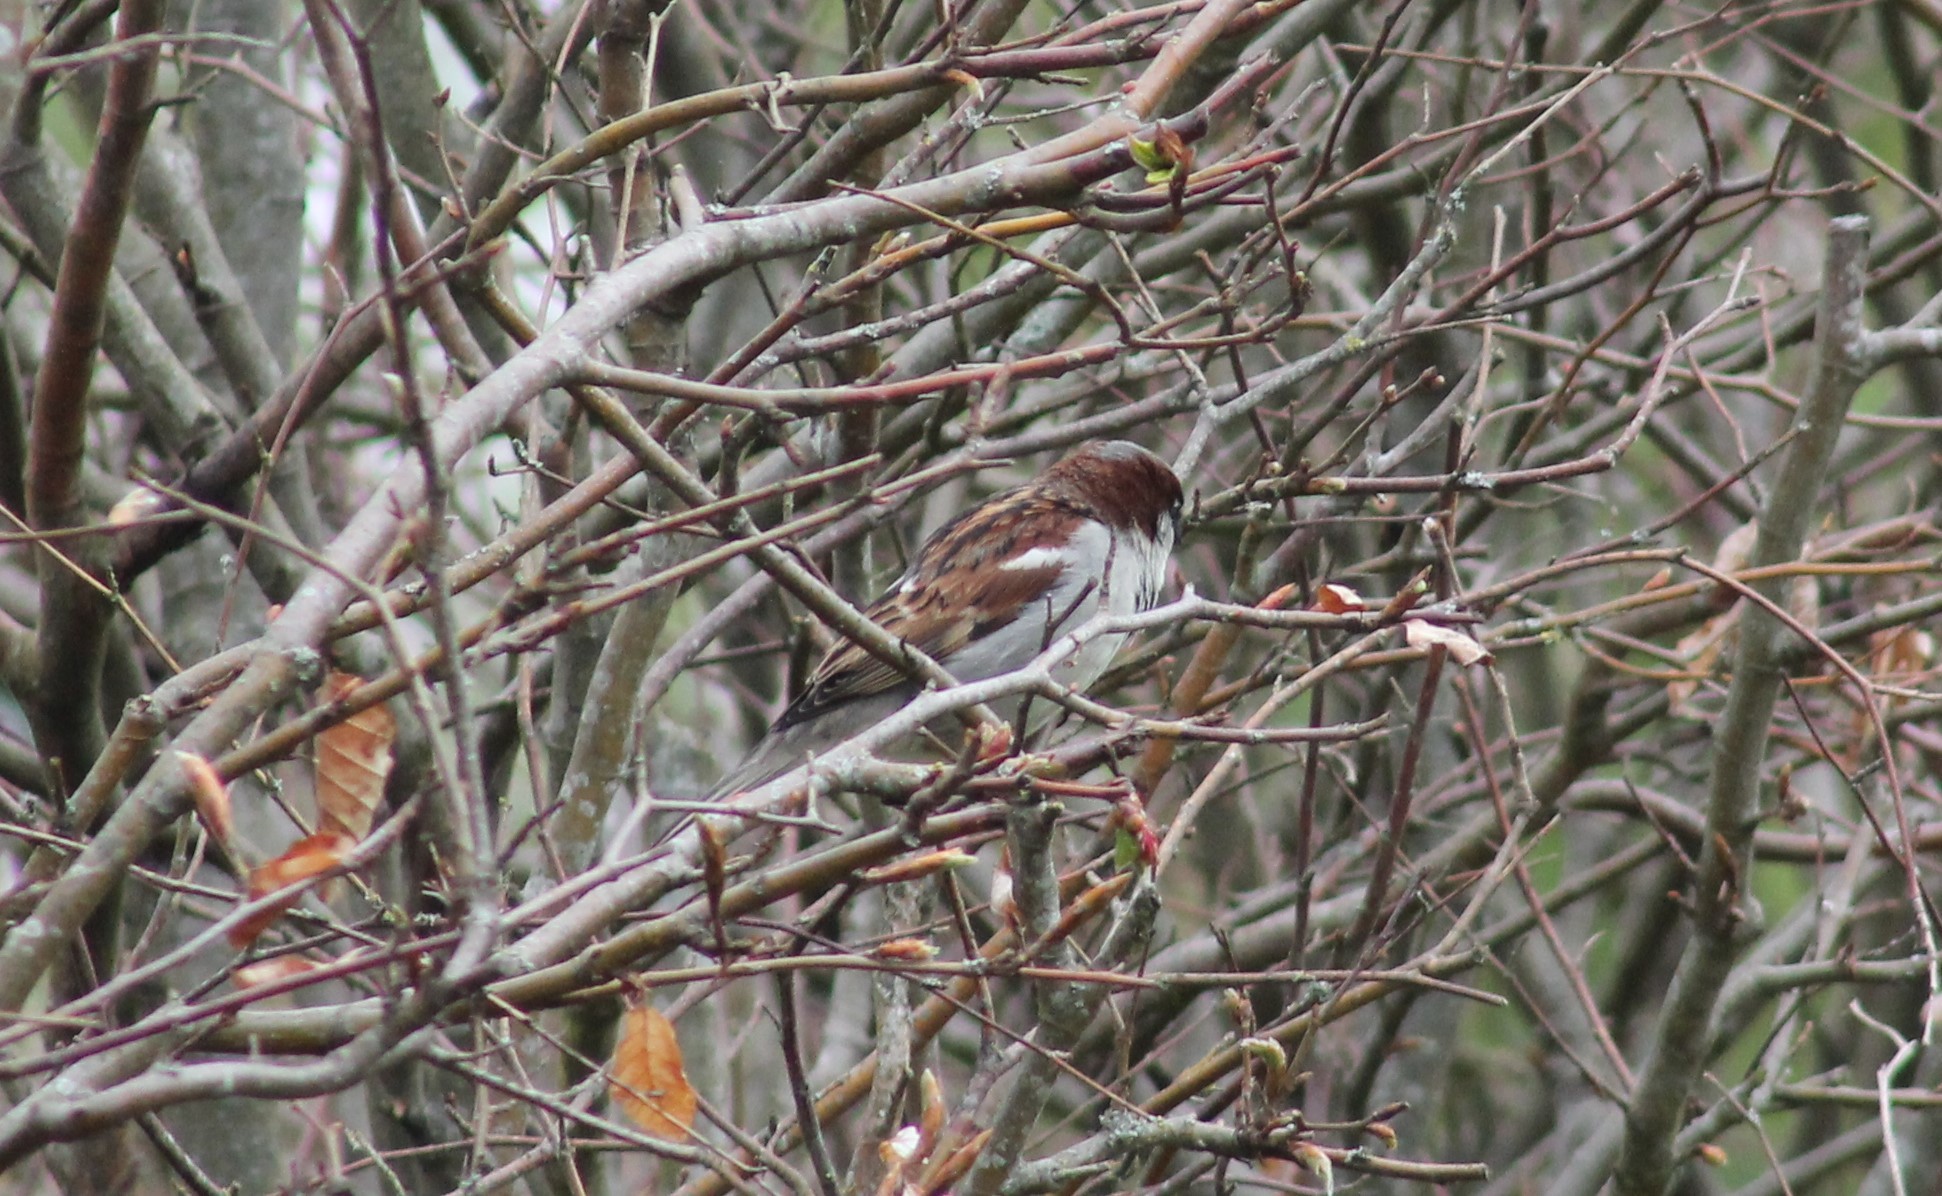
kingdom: Animalia
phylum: Chordata
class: Aves
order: Passeriformes
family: Passeridae
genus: Passer
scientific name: Passer domesticus
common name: House sparrow
